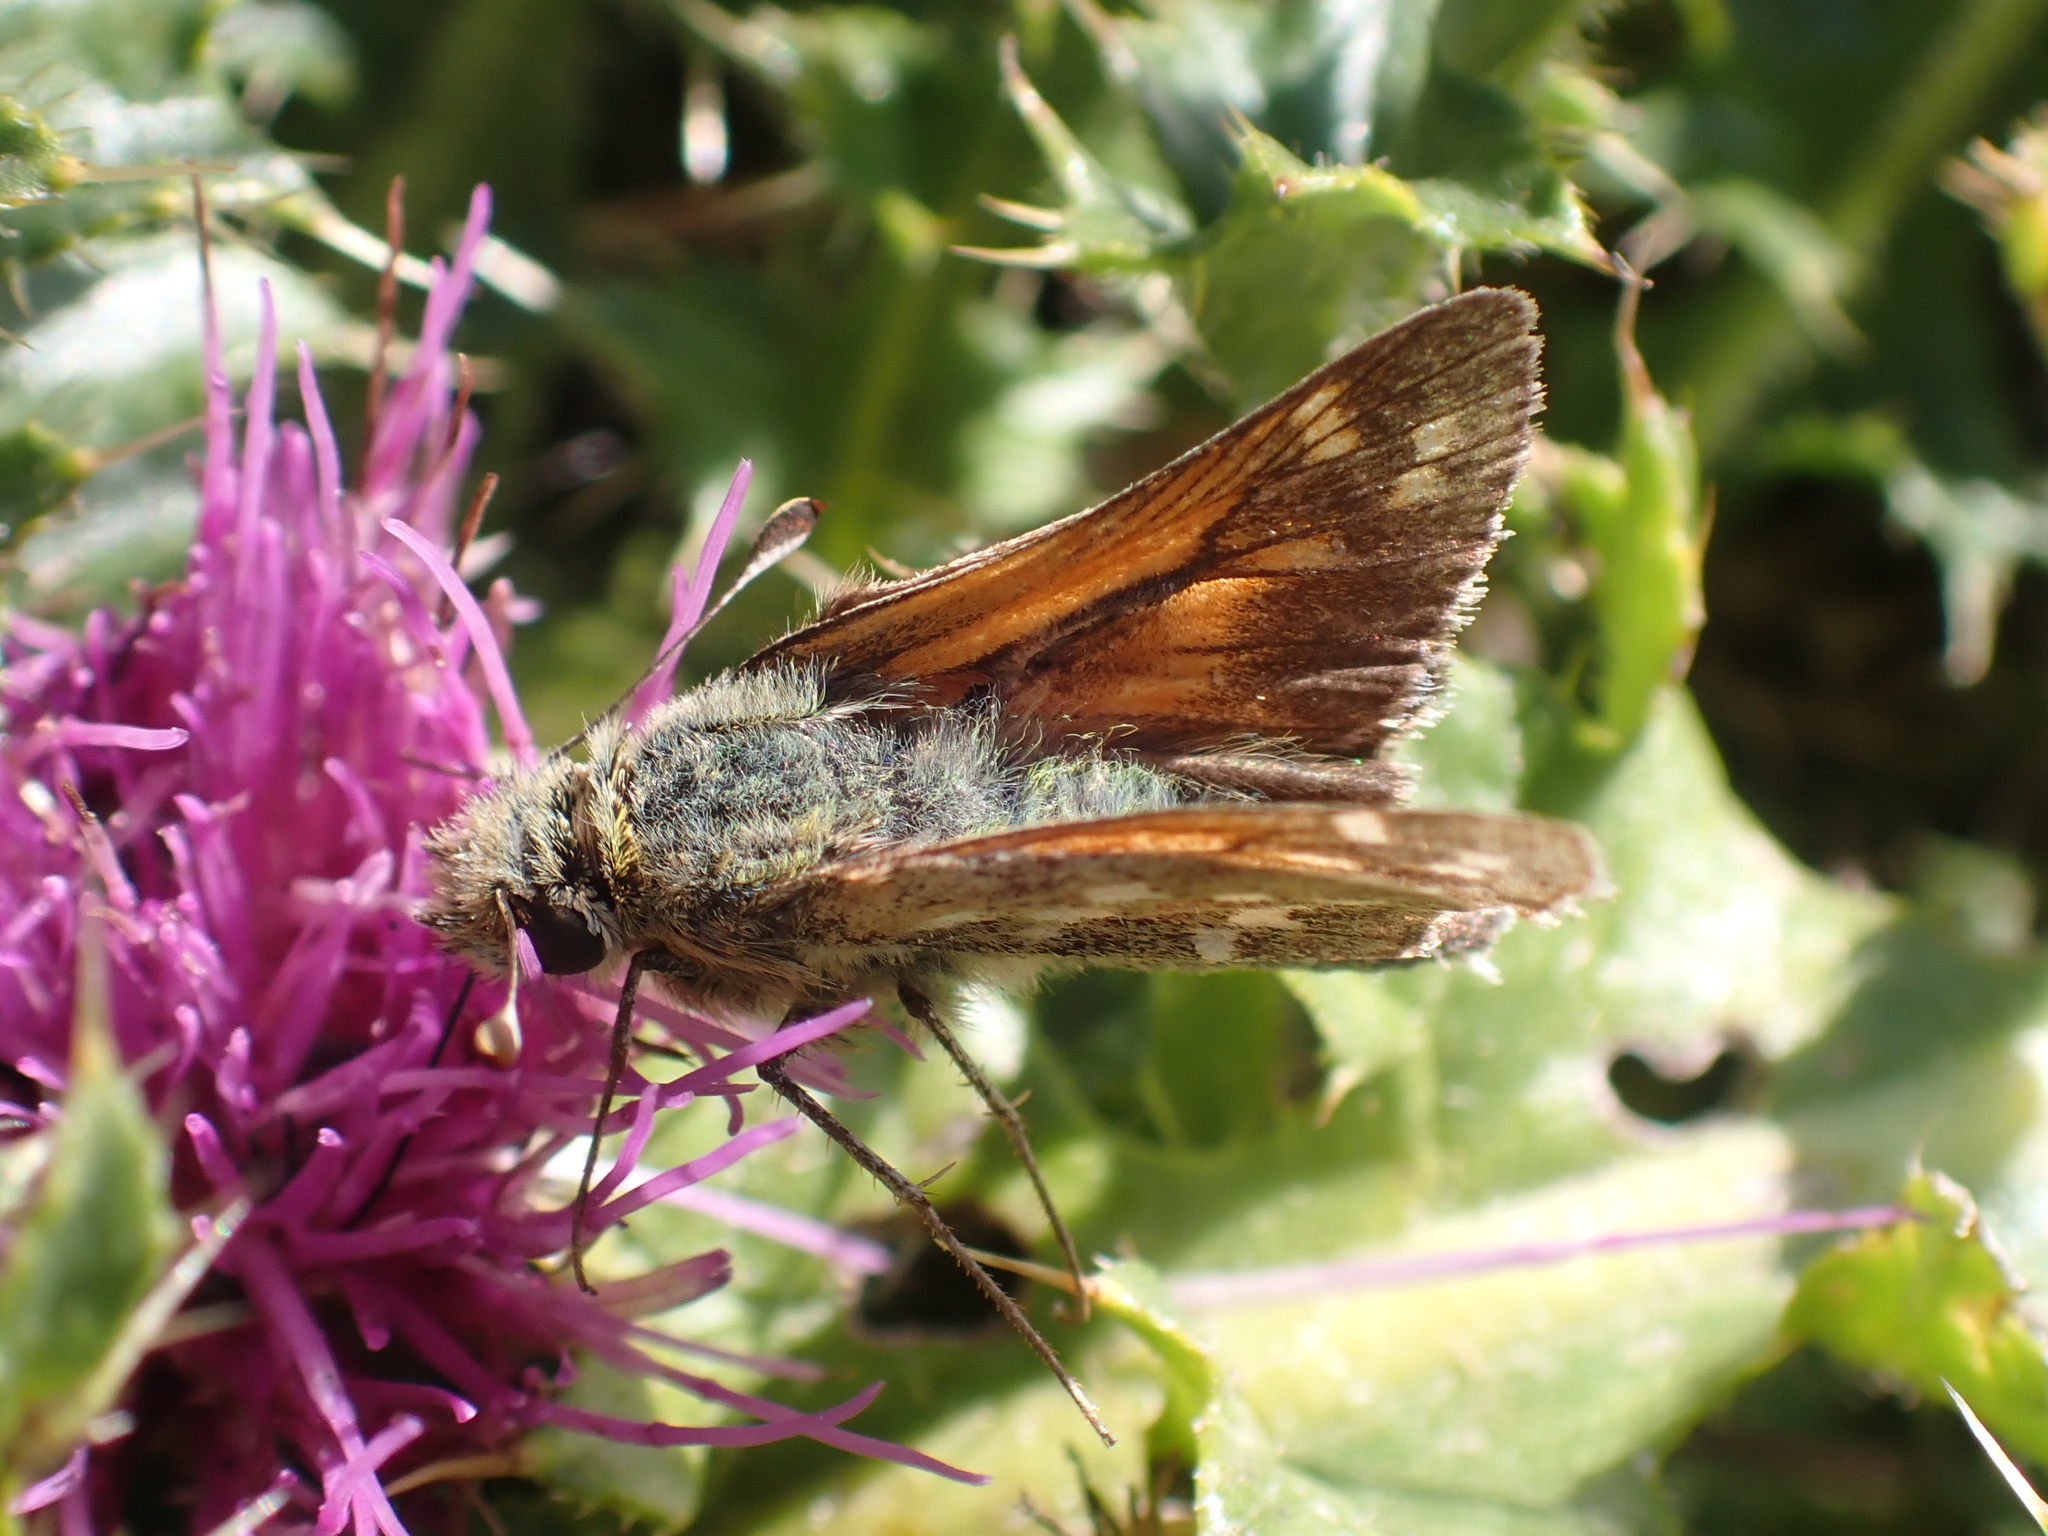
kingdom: Animalia
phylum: Arthropoda
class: Insecta
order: Lepidoptera
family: Hesperiidae
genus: Hesperia
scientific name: Hesperia comma
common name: Common branded skipper
